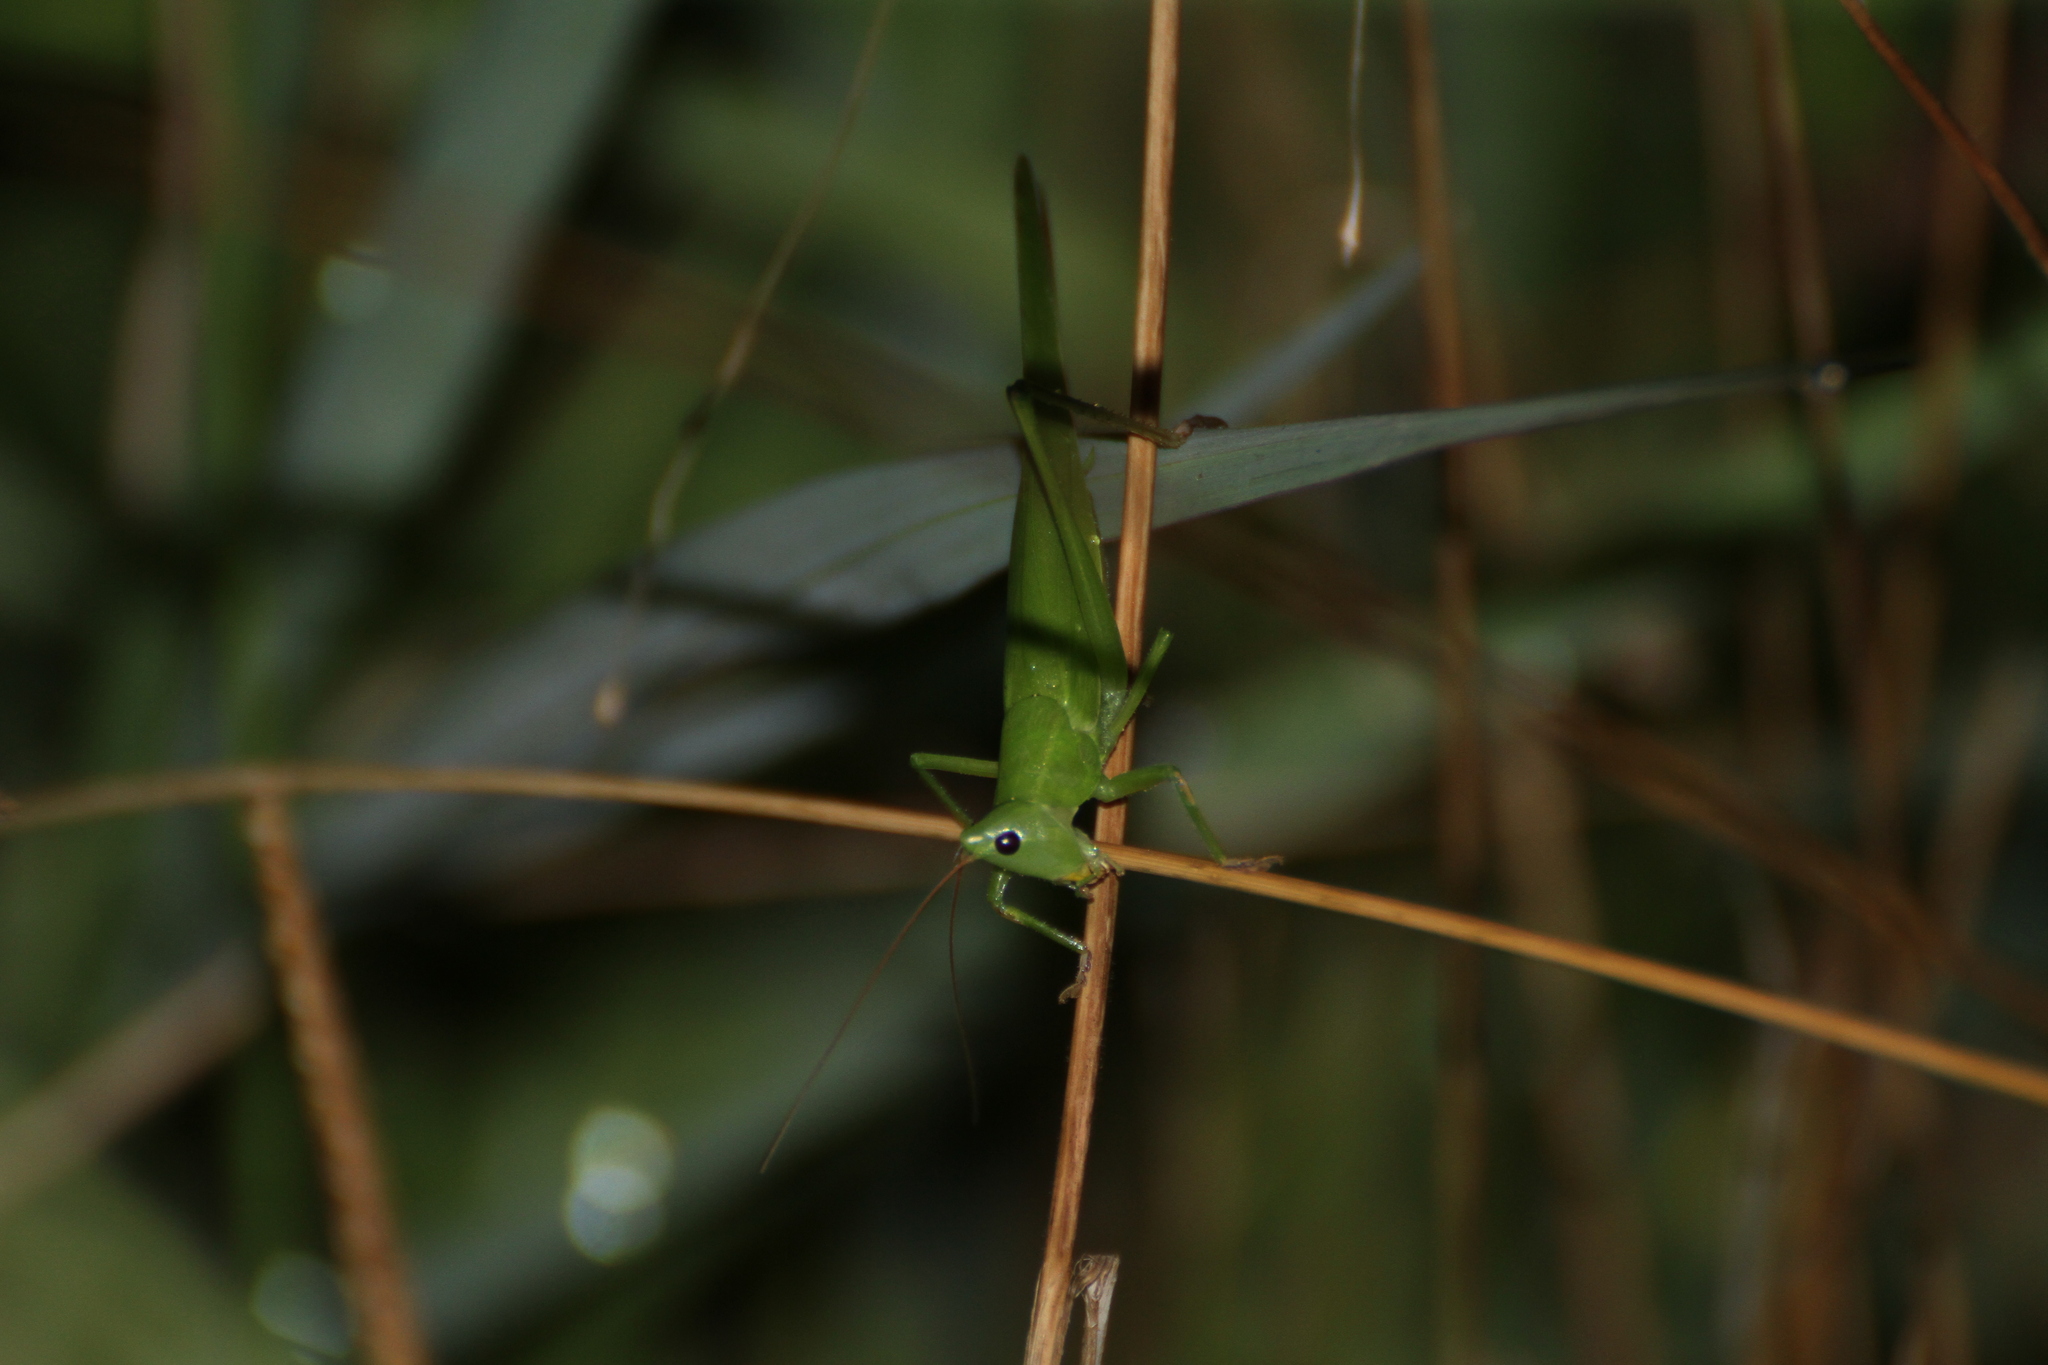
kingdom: Animalia
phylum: Arthropoda
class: Insecta
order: Orthoptera
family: Tettigoniidae
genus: Ruspolia
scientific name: Ruspolia nitidula
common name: Large conehead
